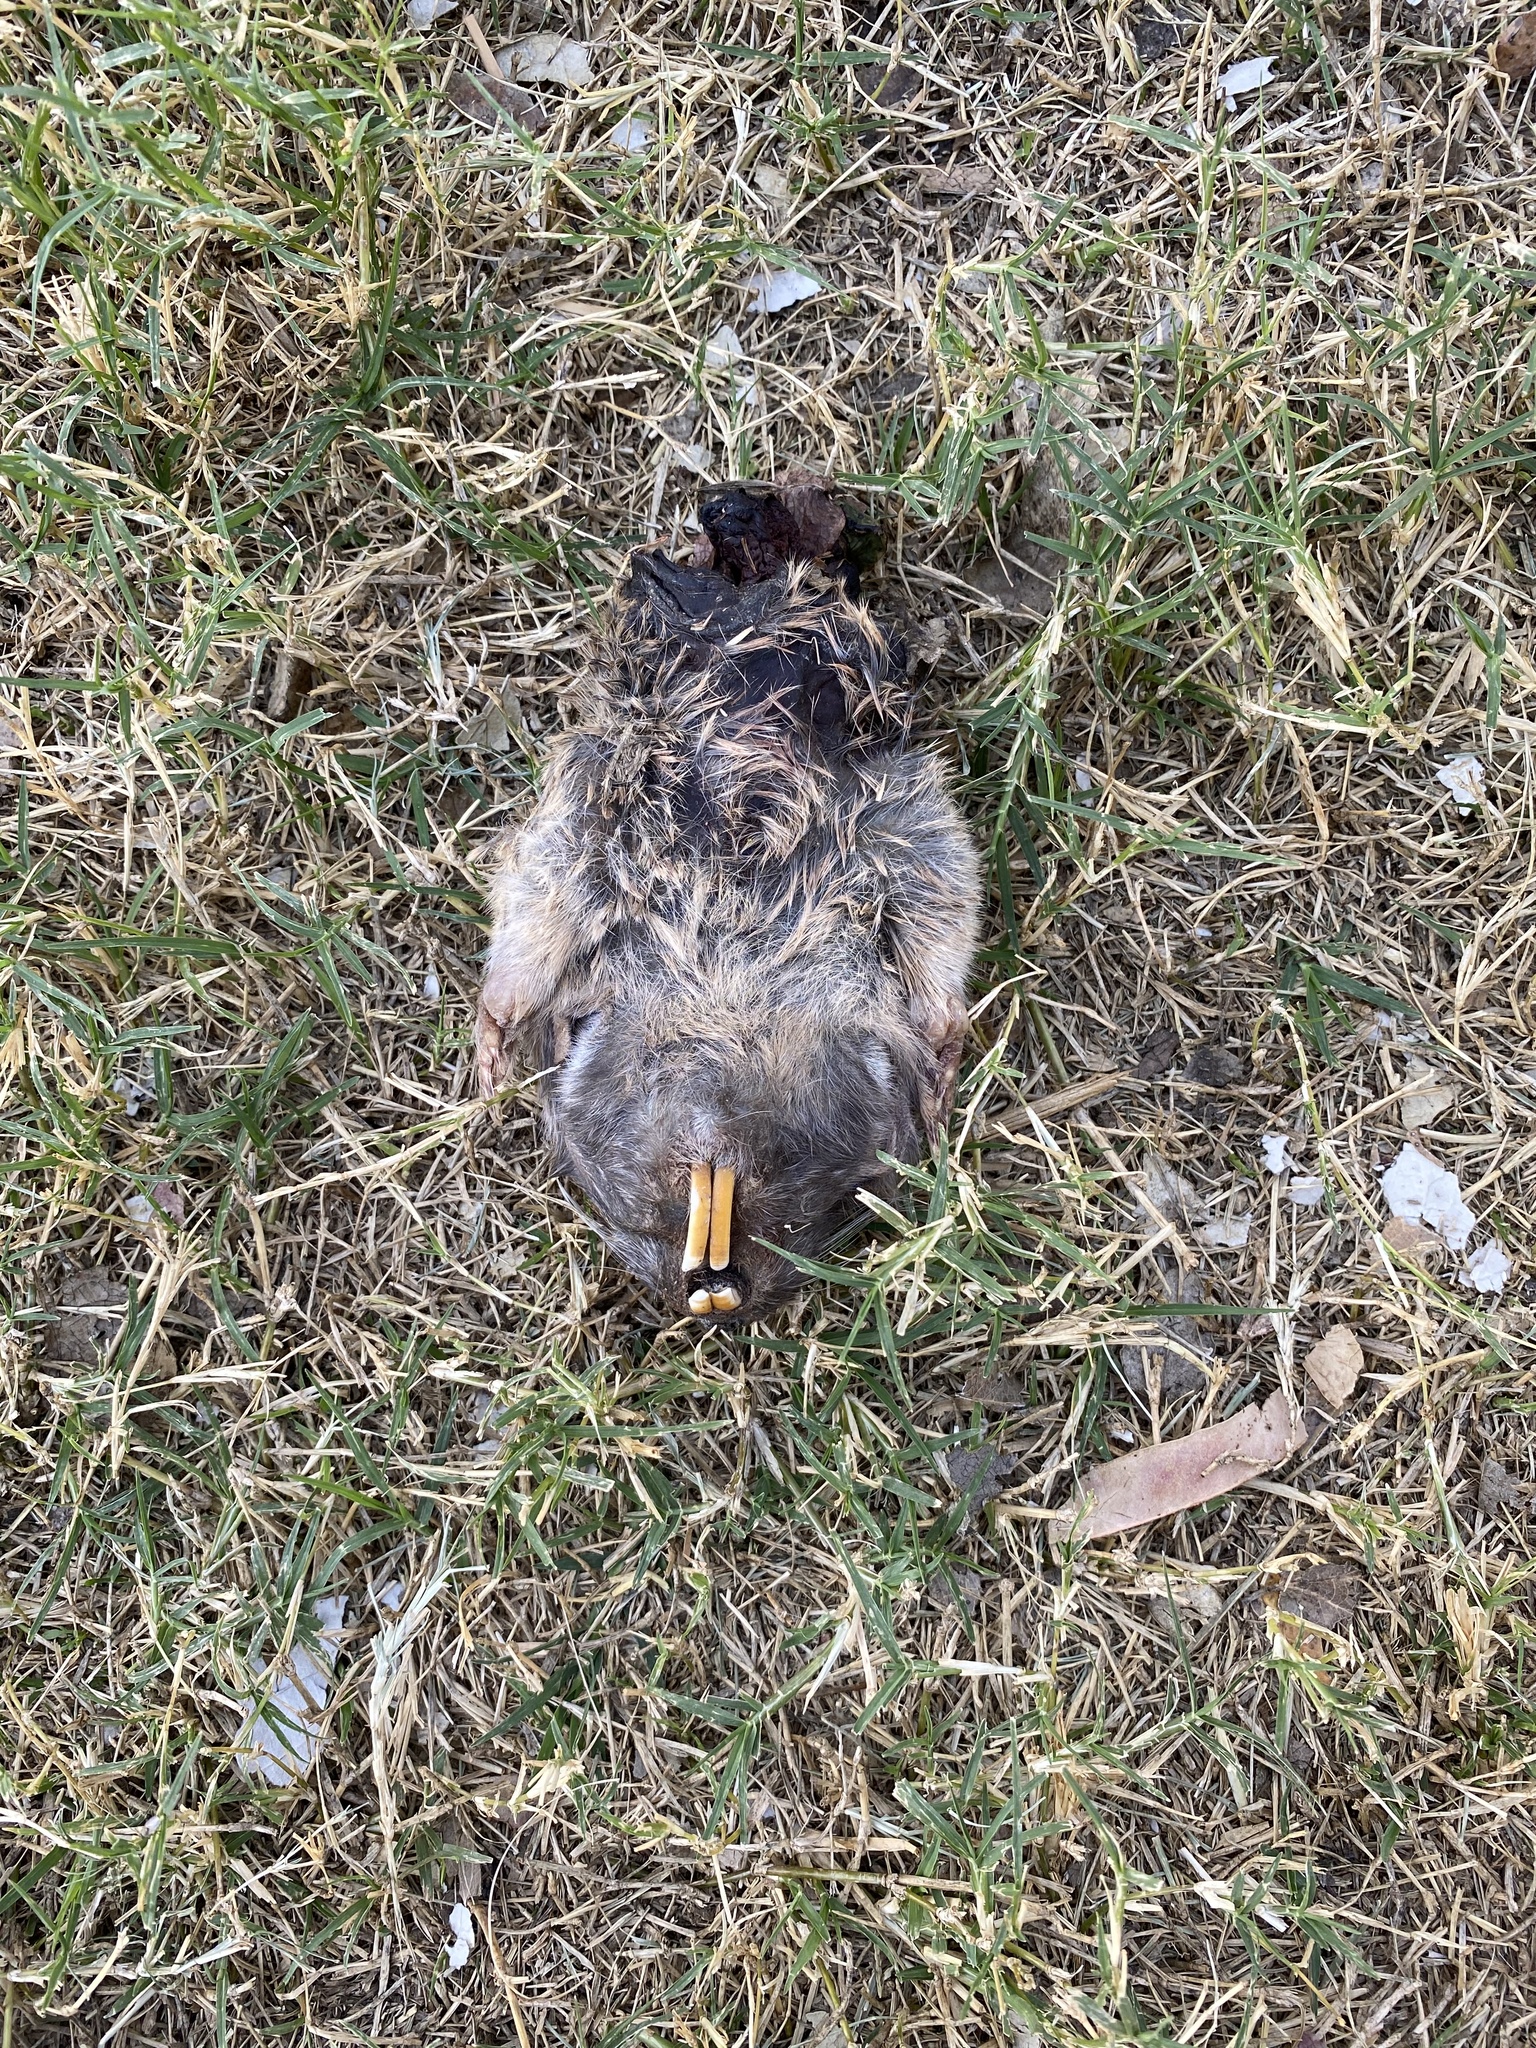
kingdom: Animalia
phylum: Chordata
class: Mammalia
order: Rodentia
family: Geomyidae
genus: Thomomys
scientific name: Thomomys bottae
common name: Botta's pocket gopher
